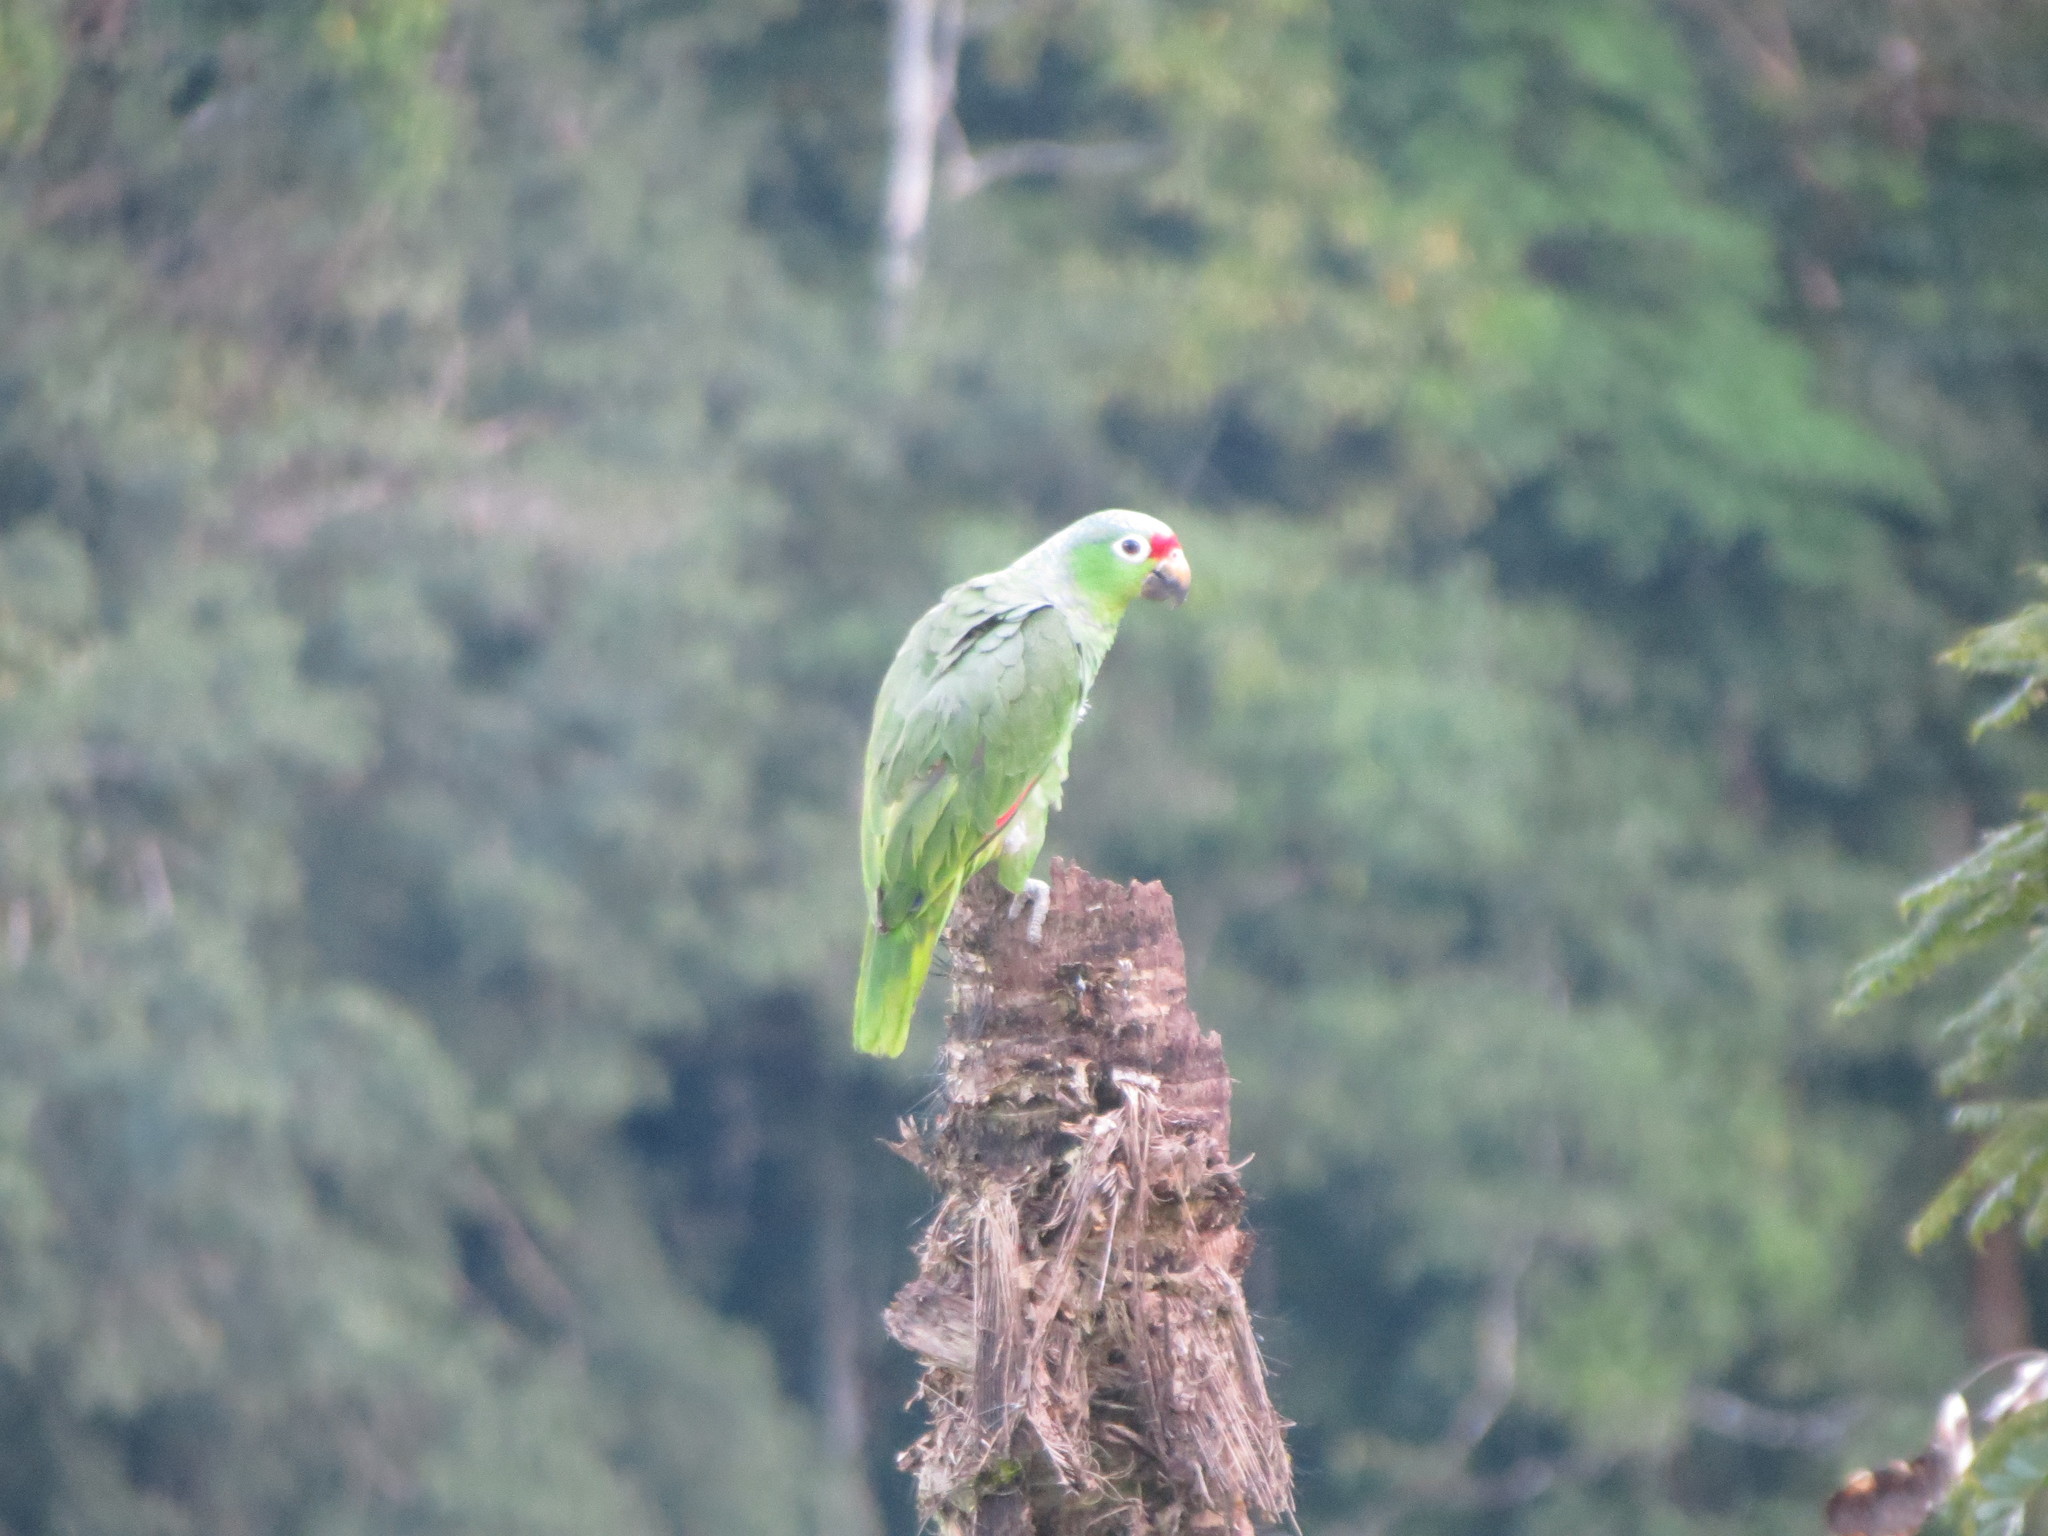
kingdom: Animalia
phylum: Chordata
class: Aves
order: Psittaciformes
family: Psittacidae
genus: Amazona
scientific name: Amazona autumnalis
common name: Red-lored amazon
